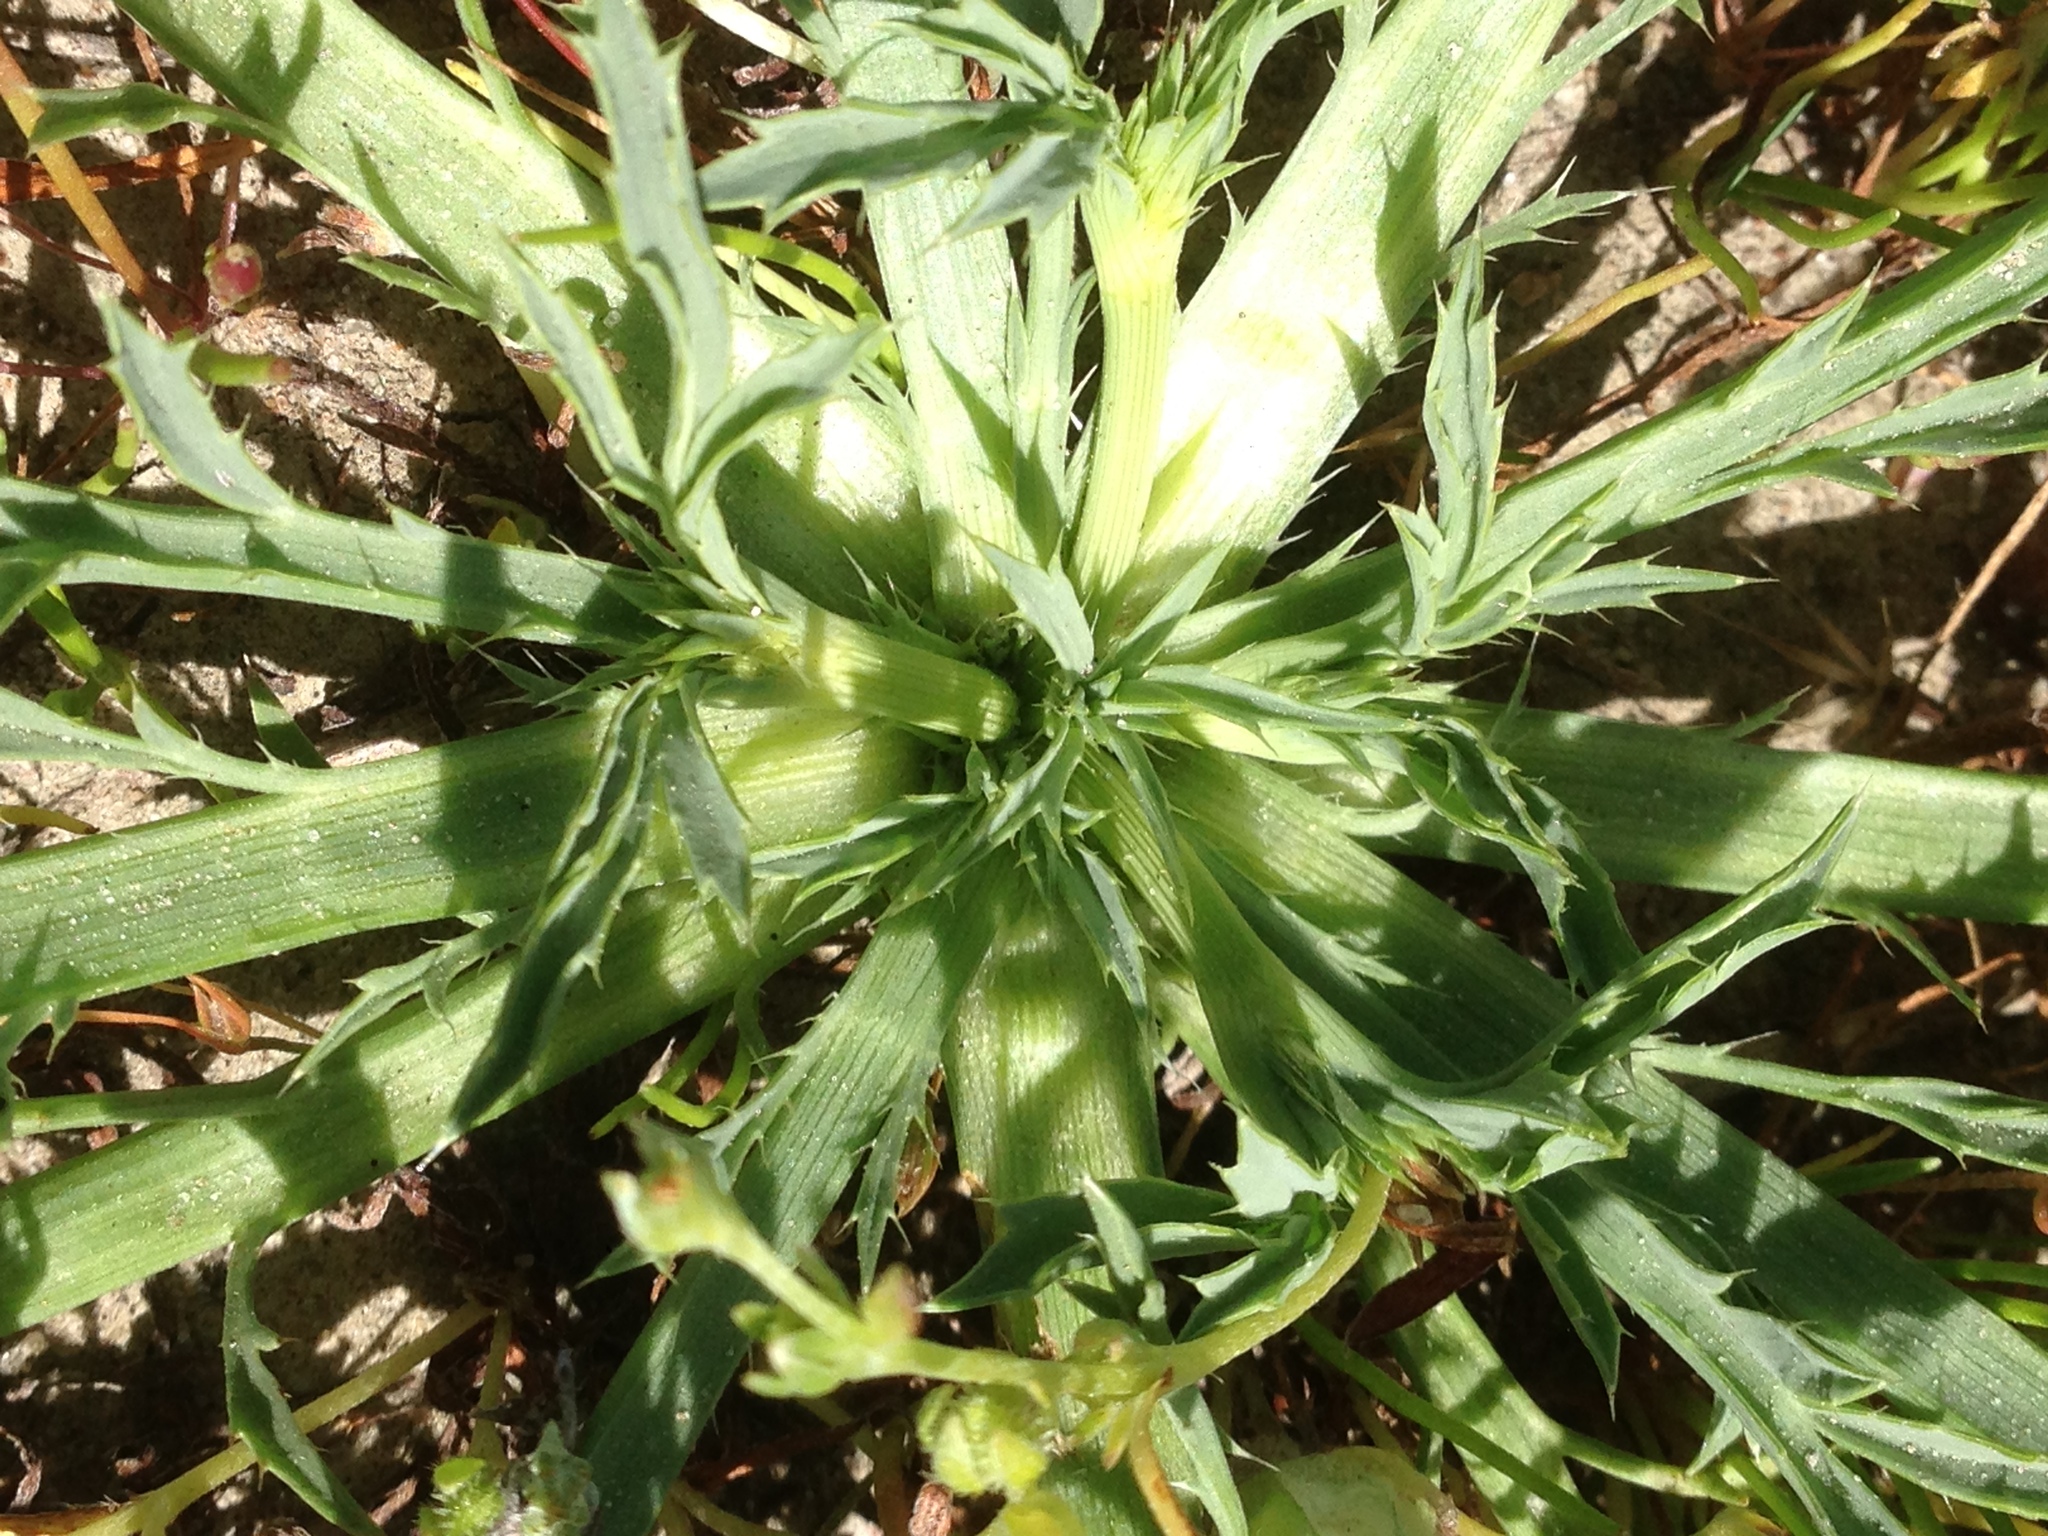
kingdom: Plantae
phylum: Tracheophyta
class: Magnoliopsida
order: Apiales
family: Apiaceae
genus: Eryngium
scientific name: Eryngium aristulatum
